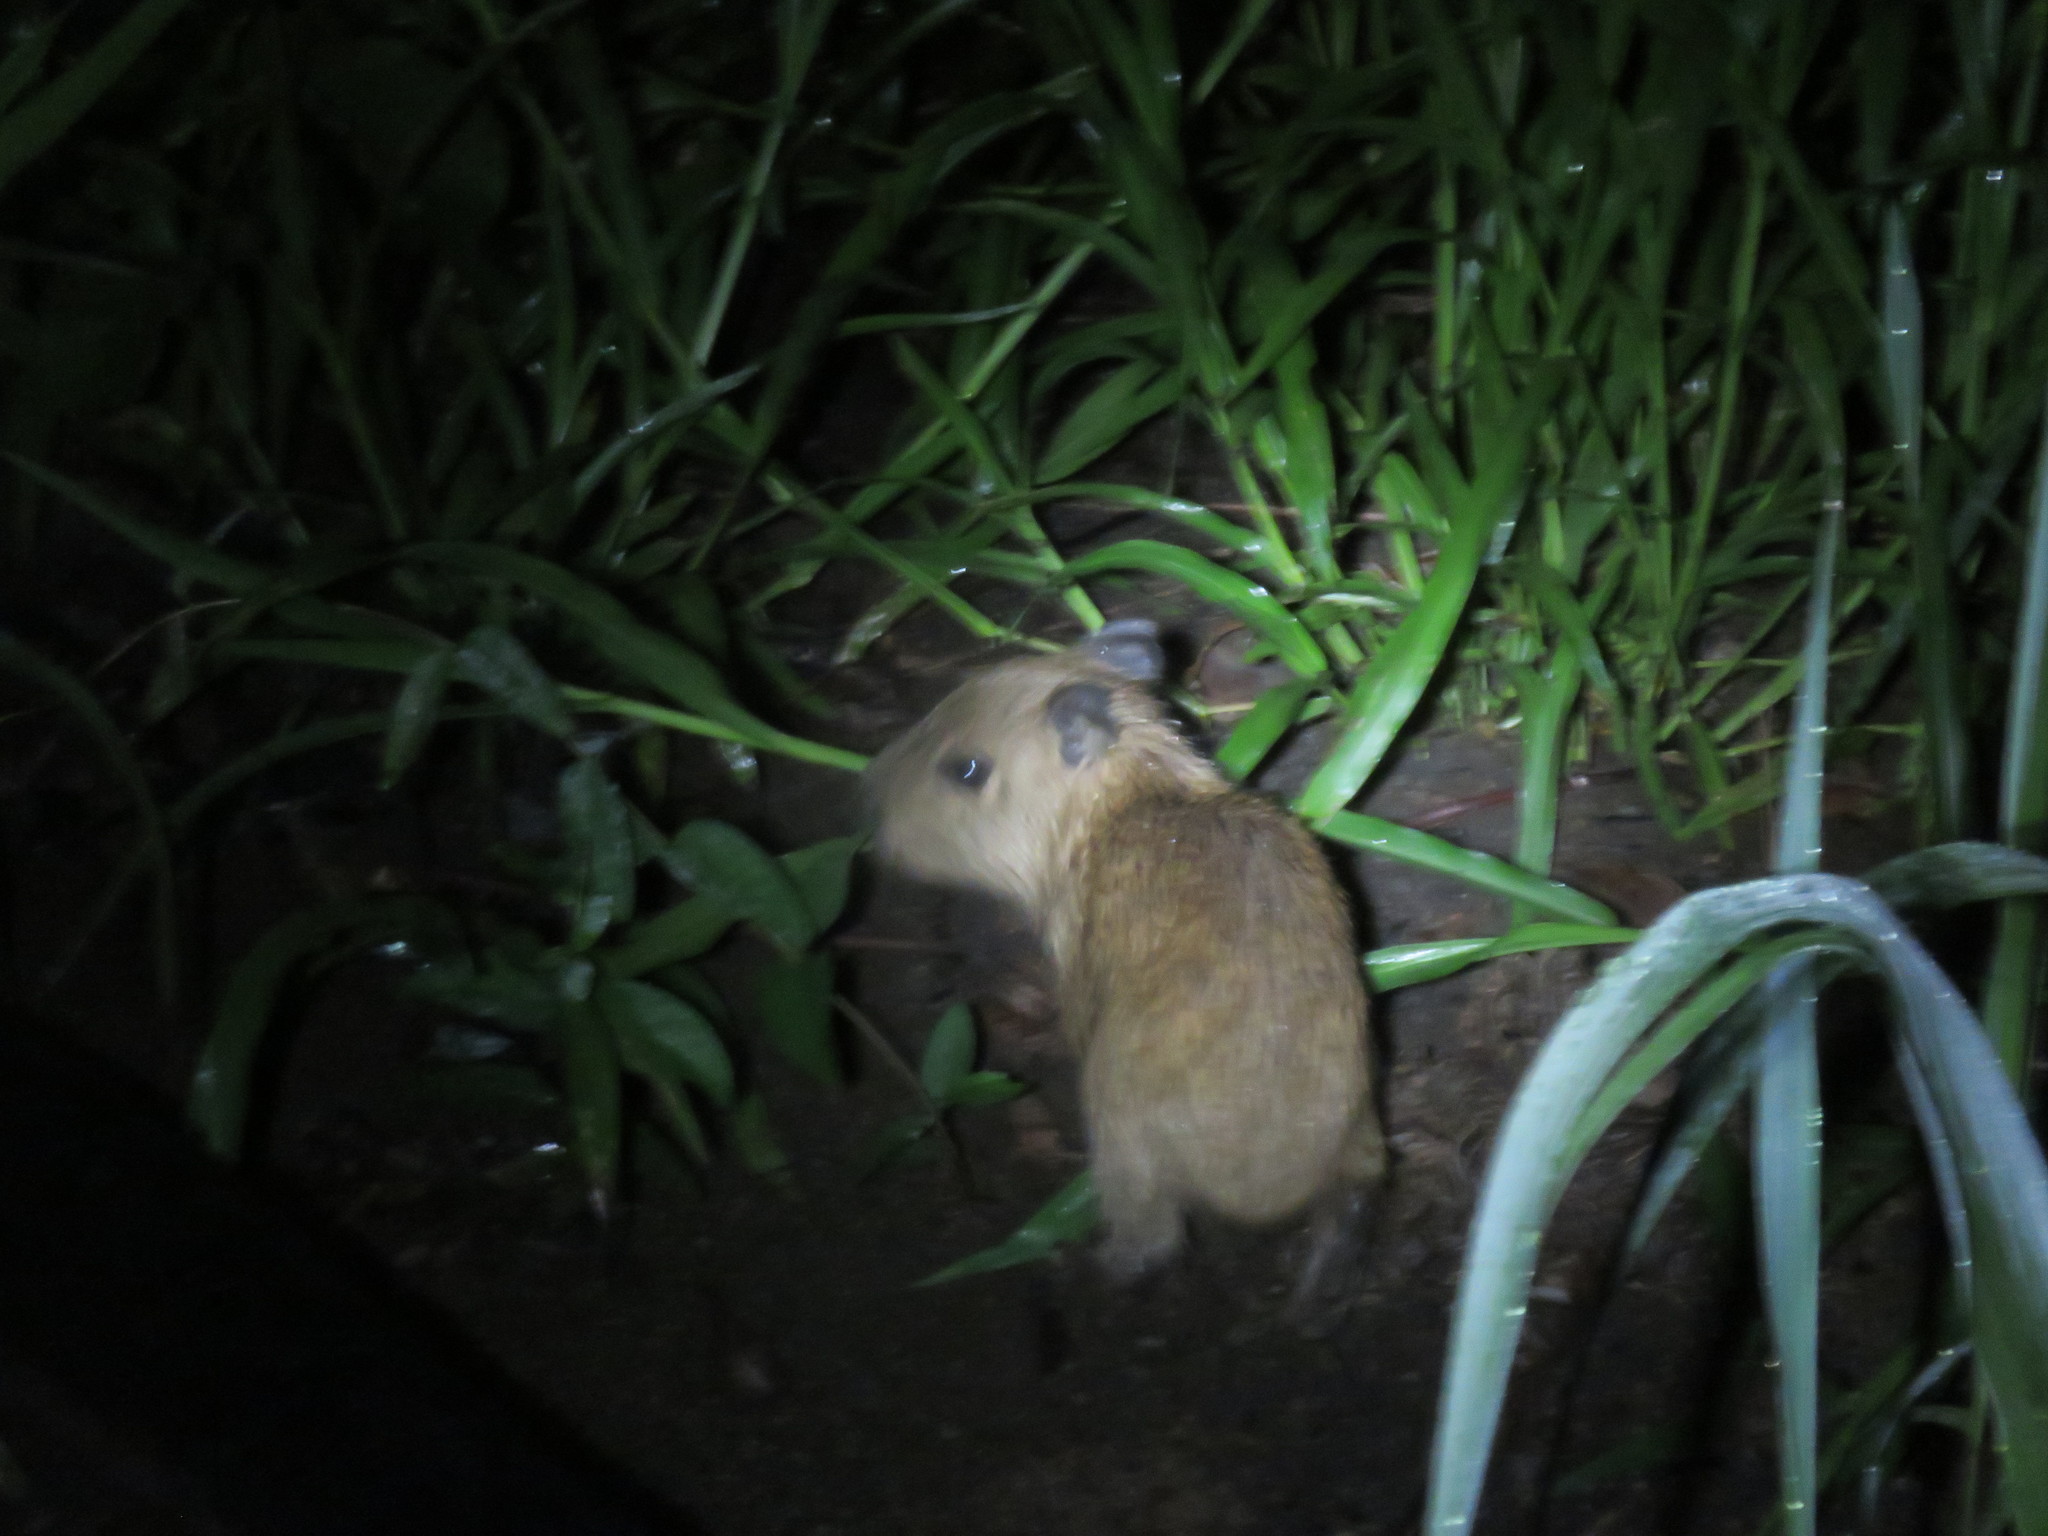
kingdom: Animalia
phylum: Chordata
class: Mammalia
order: Rodentia
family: Caviidae
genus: Hydrochoerus
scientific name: Hydrochoerus hydrochaeris
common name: Capybara
